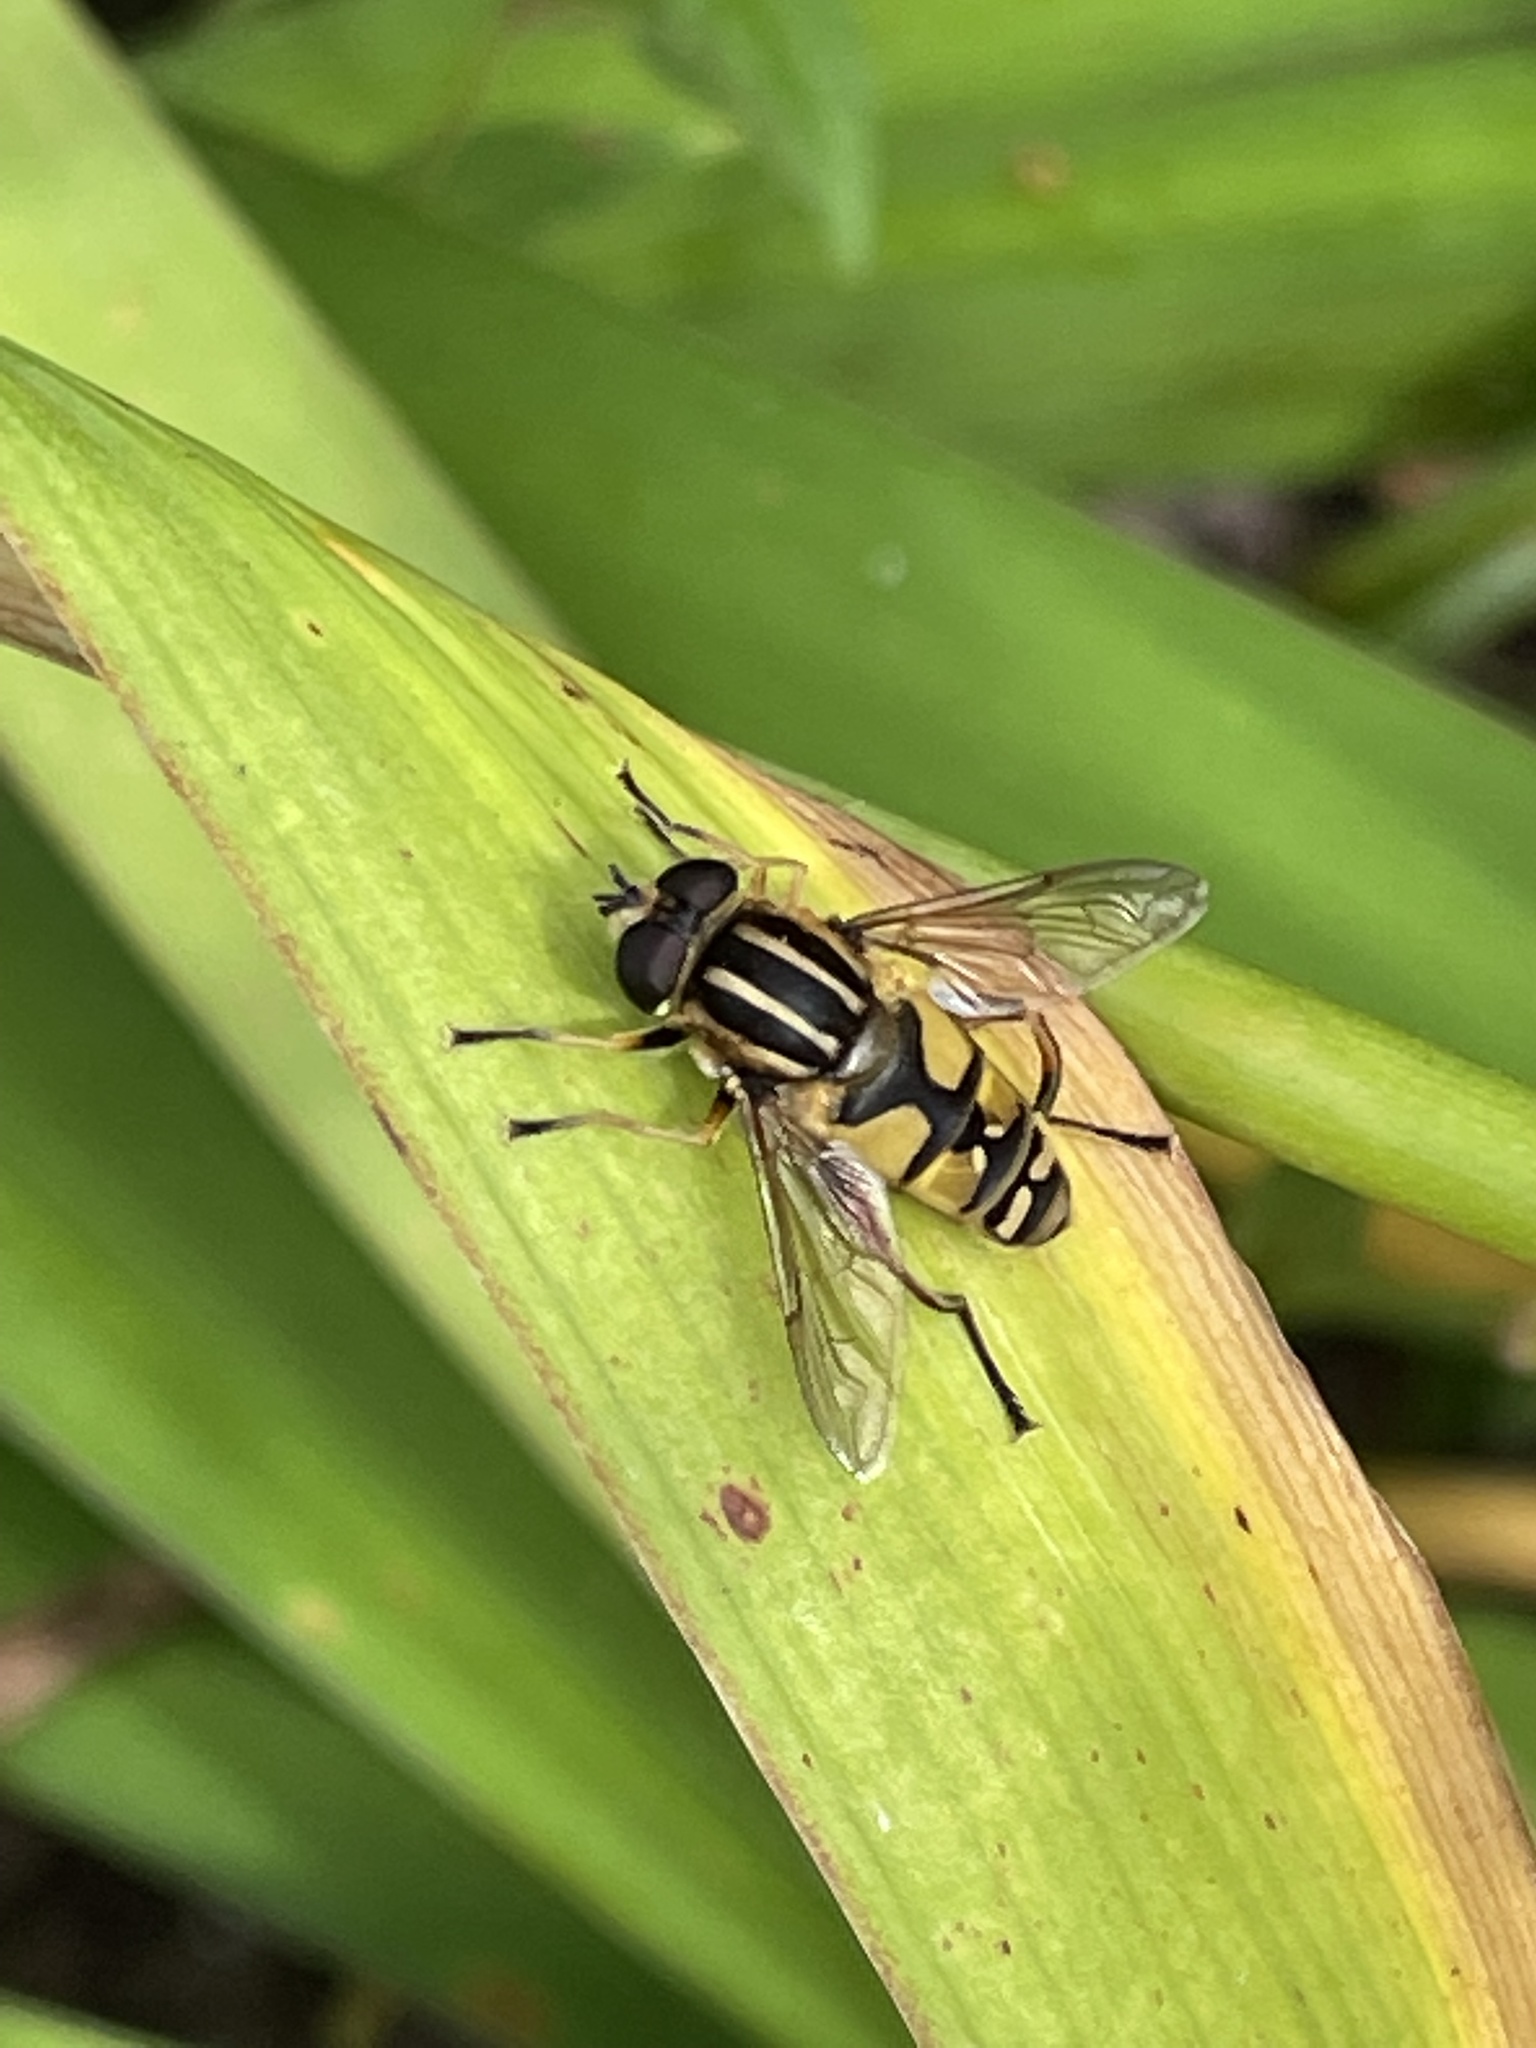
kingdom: Animalia
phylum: Arthropoda
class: Insecta
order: Diptera
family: Syrphidae
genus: Helophilus
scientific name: Helophilus pendulus
